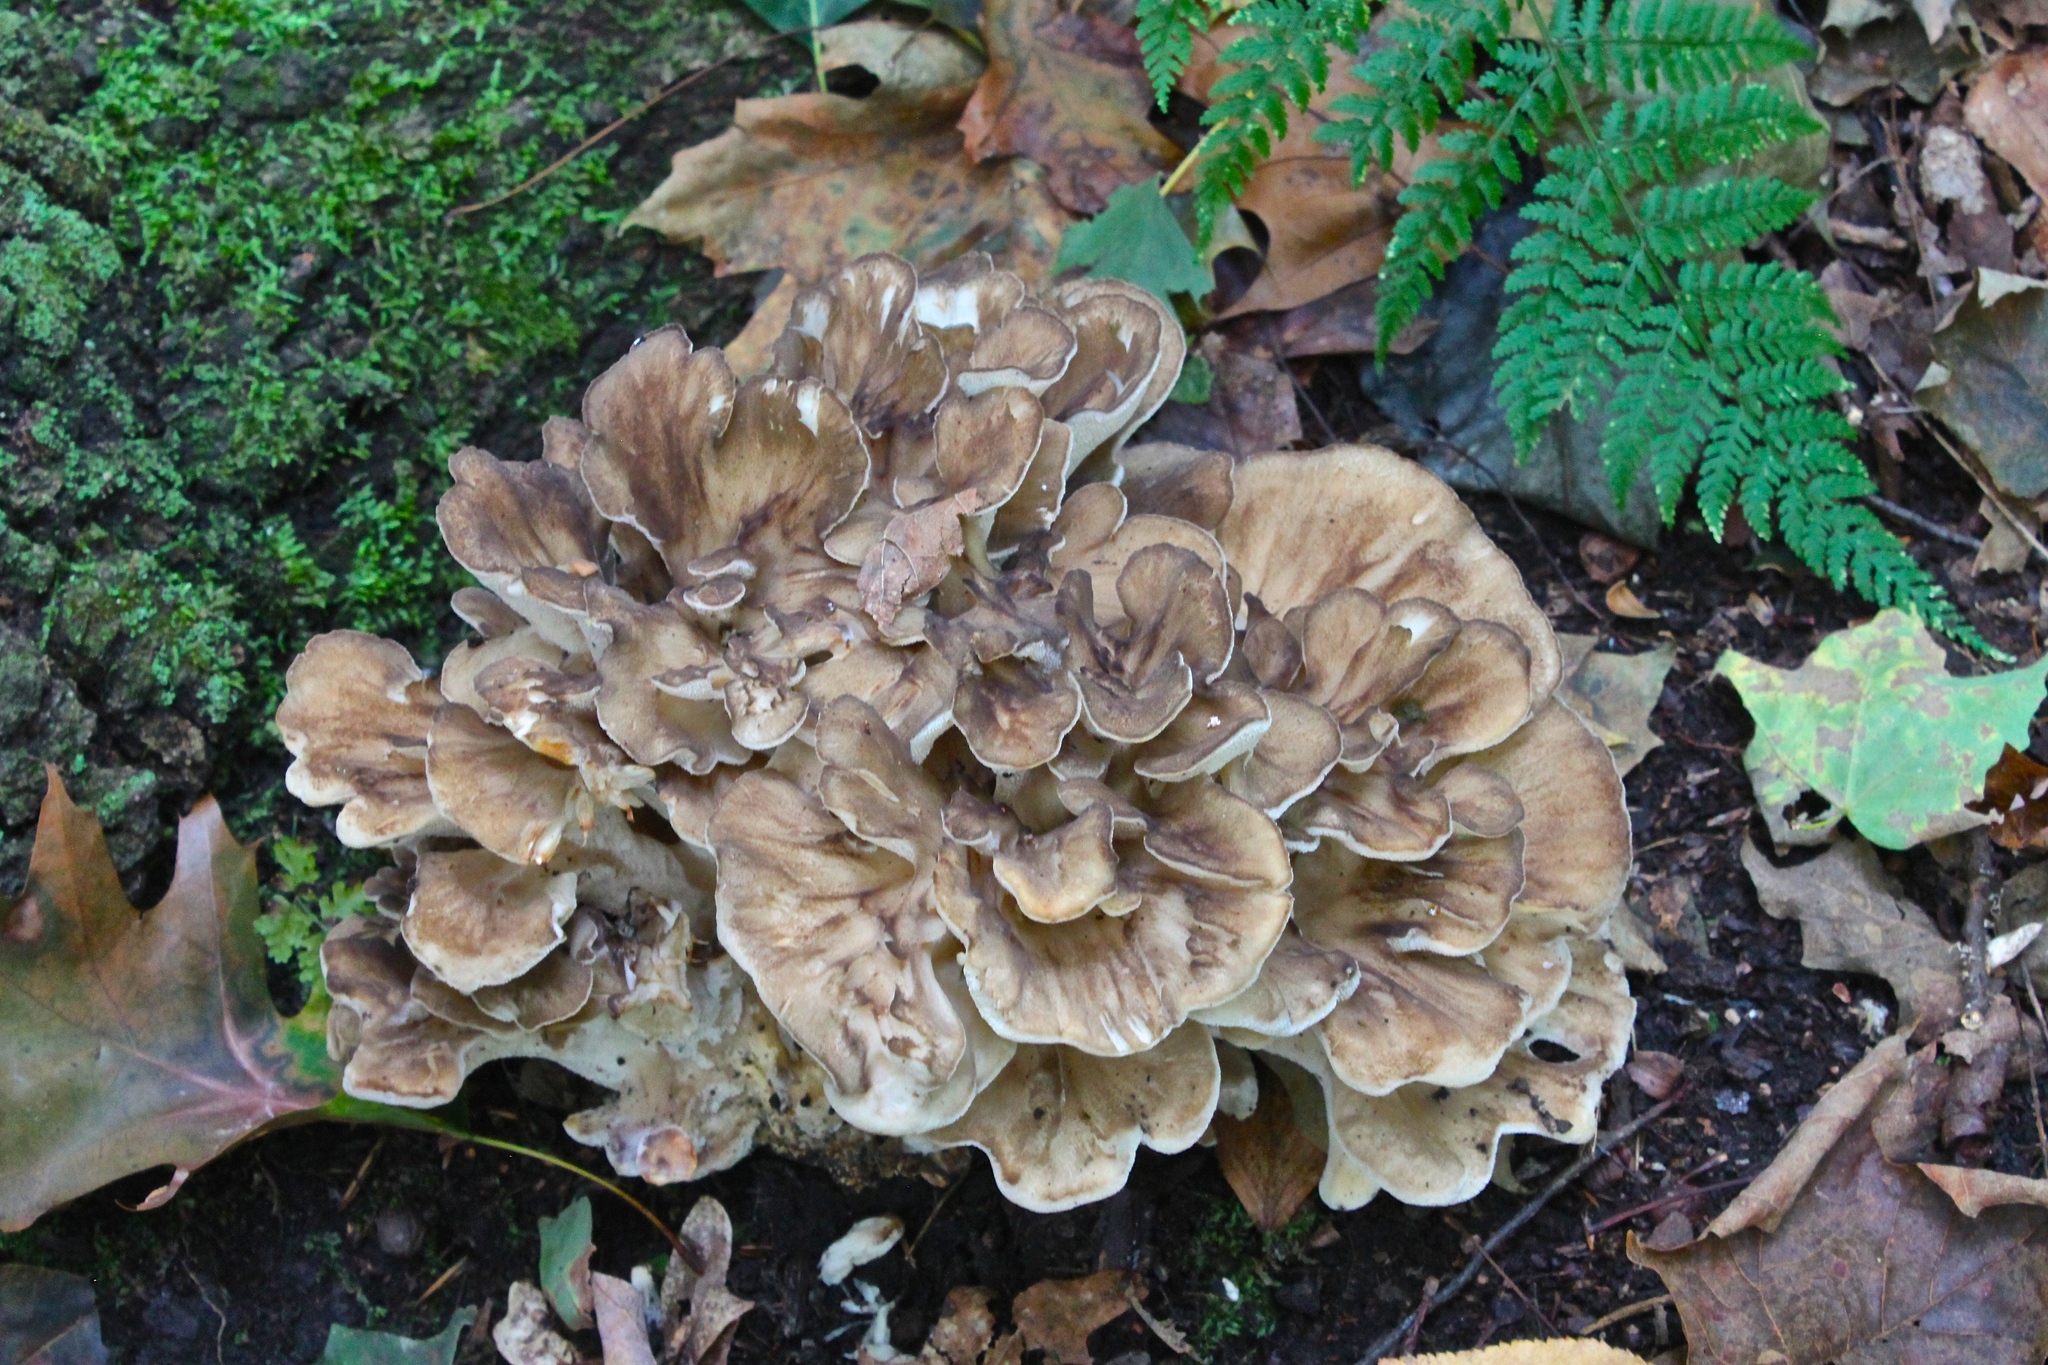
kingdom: Fungi
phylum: Basidiomycota
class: Agaricomycetes
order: Polyporales
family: Grifolaceae
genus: Grifola
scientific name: Grifola frondosa
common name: Hen of the woods
